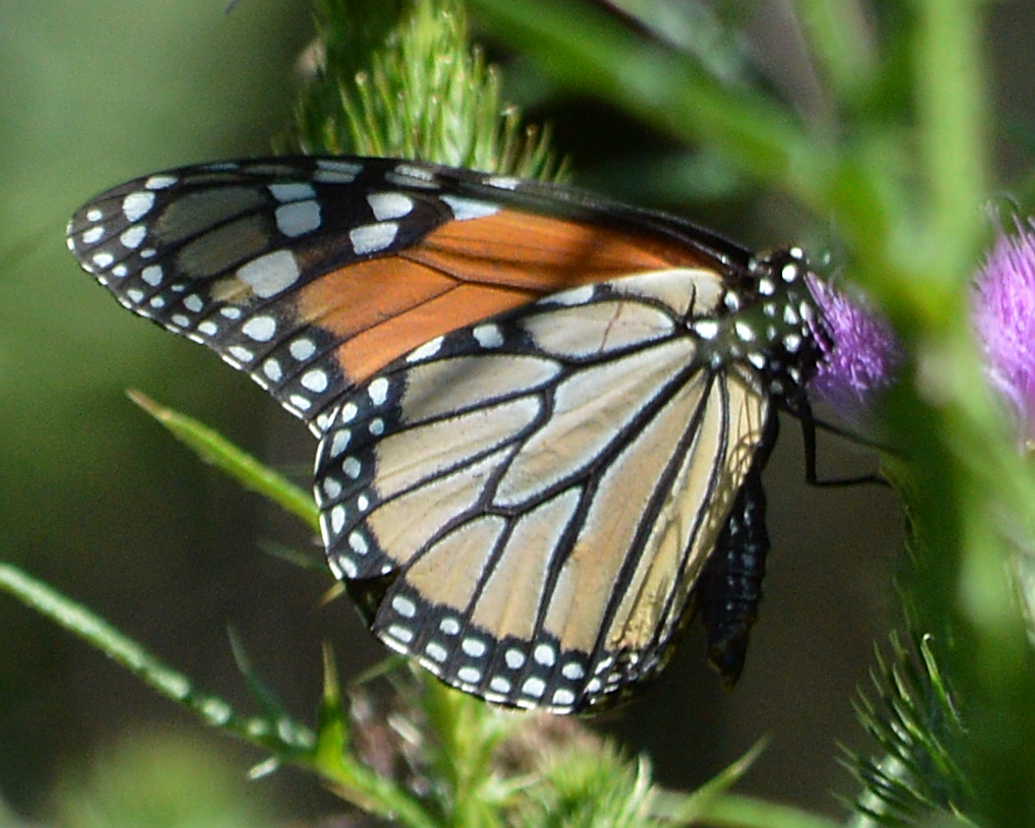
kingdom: Animalia
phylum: Arthropoda
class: Insecta
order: Lepidoptera
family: Nymphalidae
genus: Danaus
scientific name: Danaus plexippus
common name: Monarch
